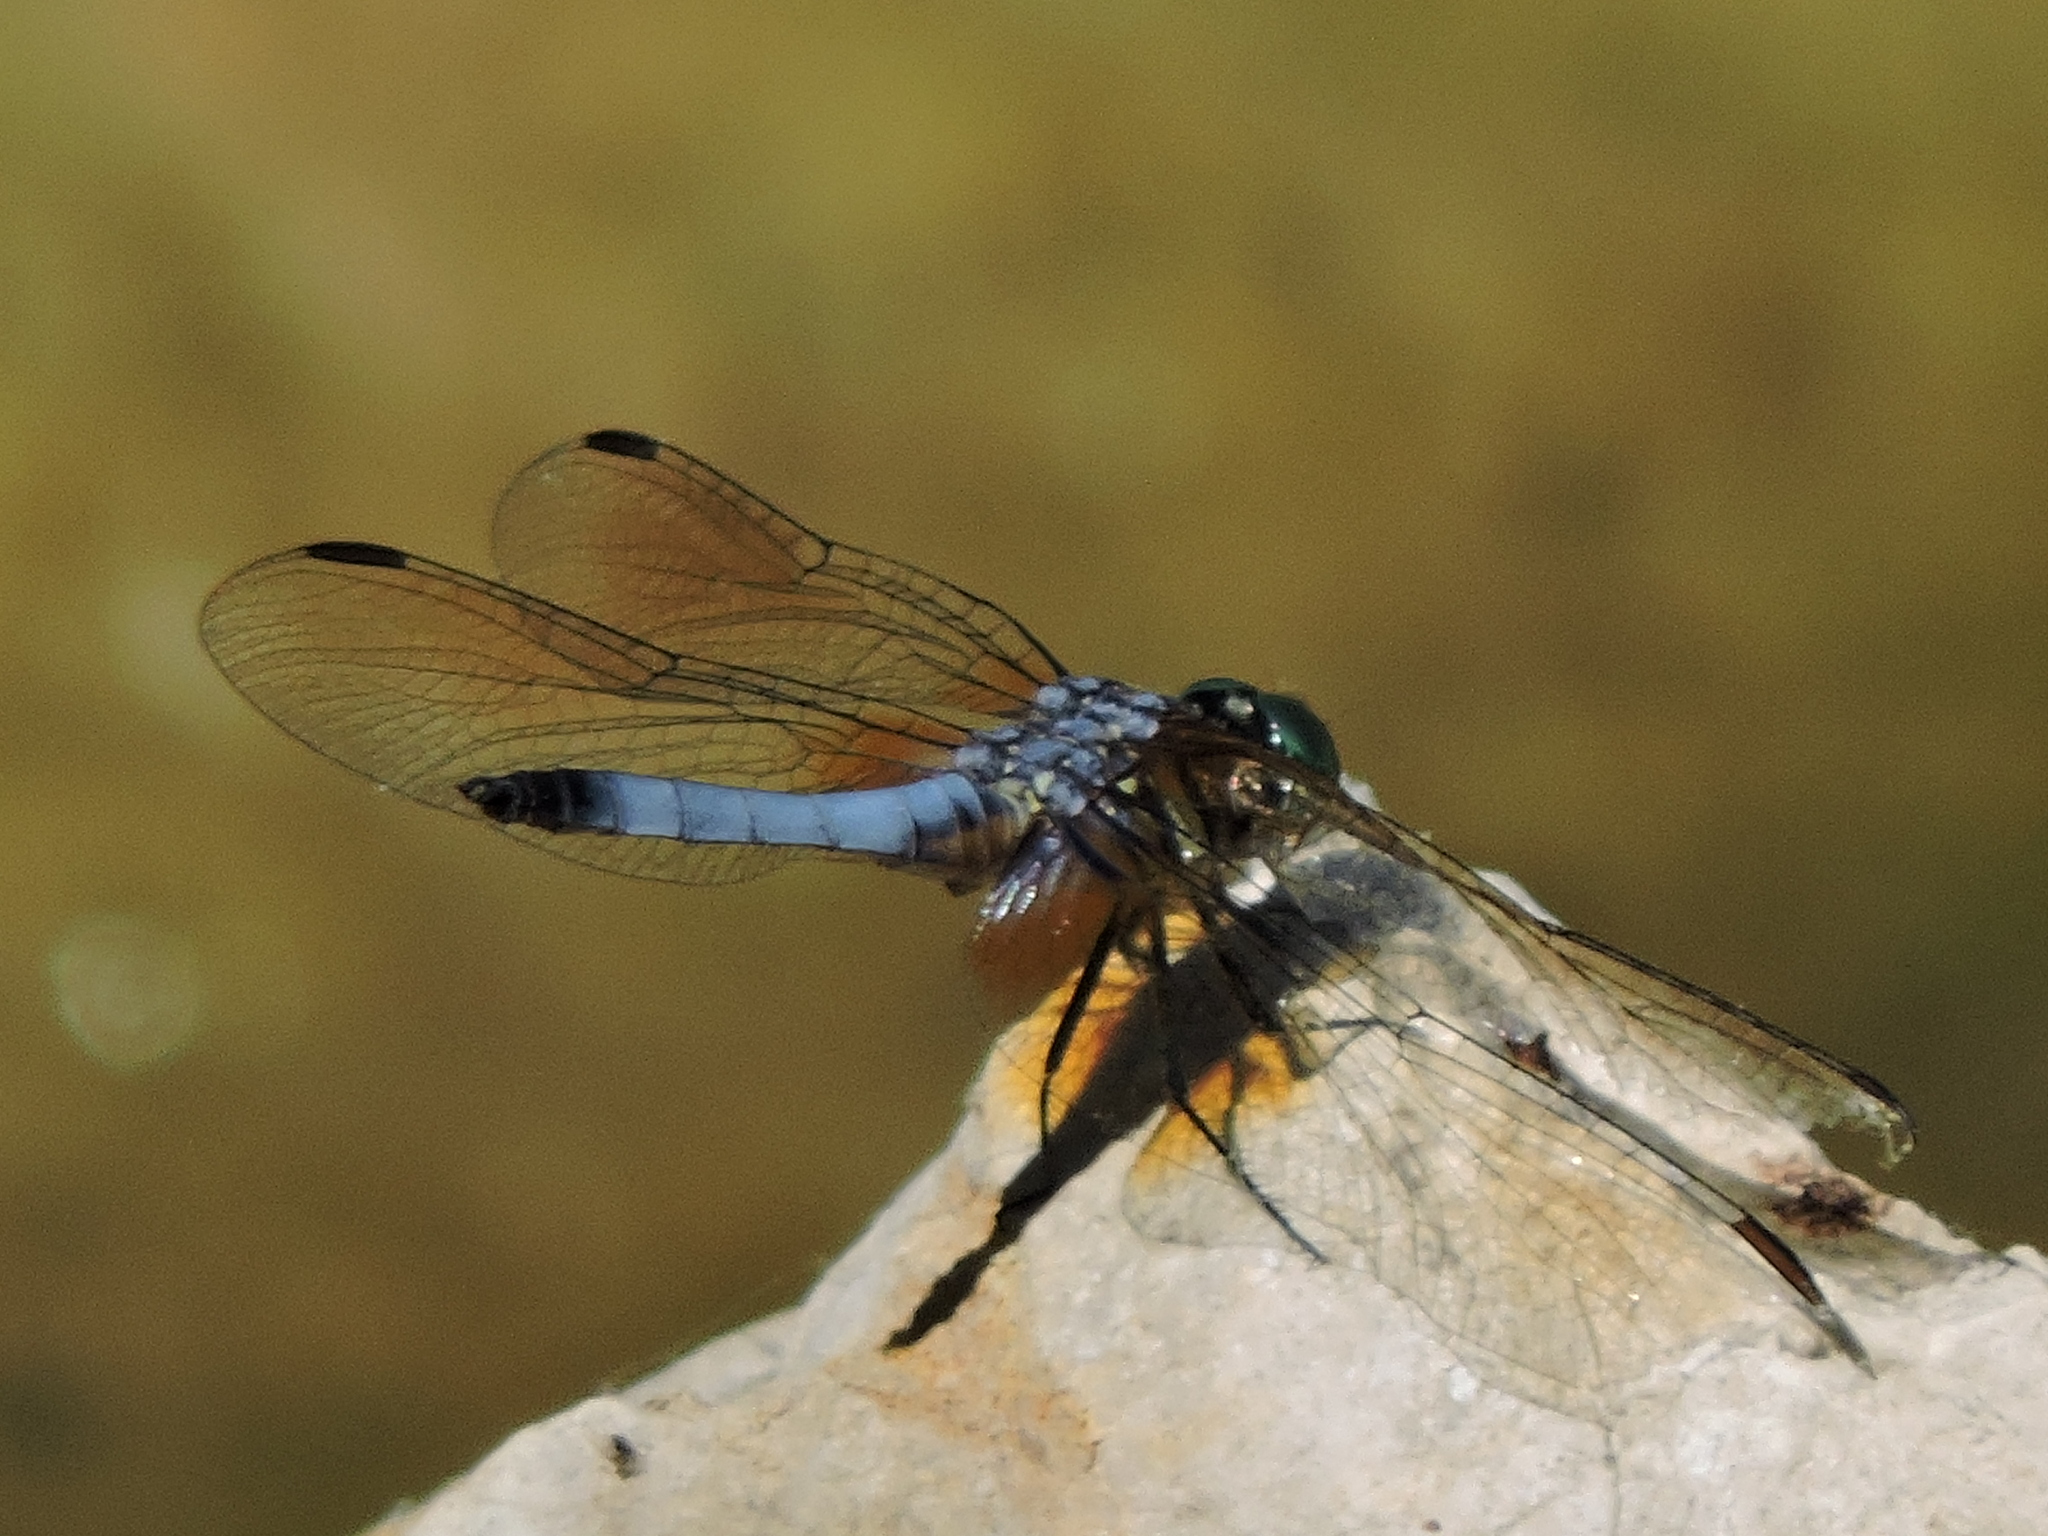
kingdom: Animalia
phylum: Arthropoda
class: Insecta
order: Odonata
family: Libellulidae
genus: Pachydiplax
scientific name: Pachydiplax longipennis
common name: Blue dasher
